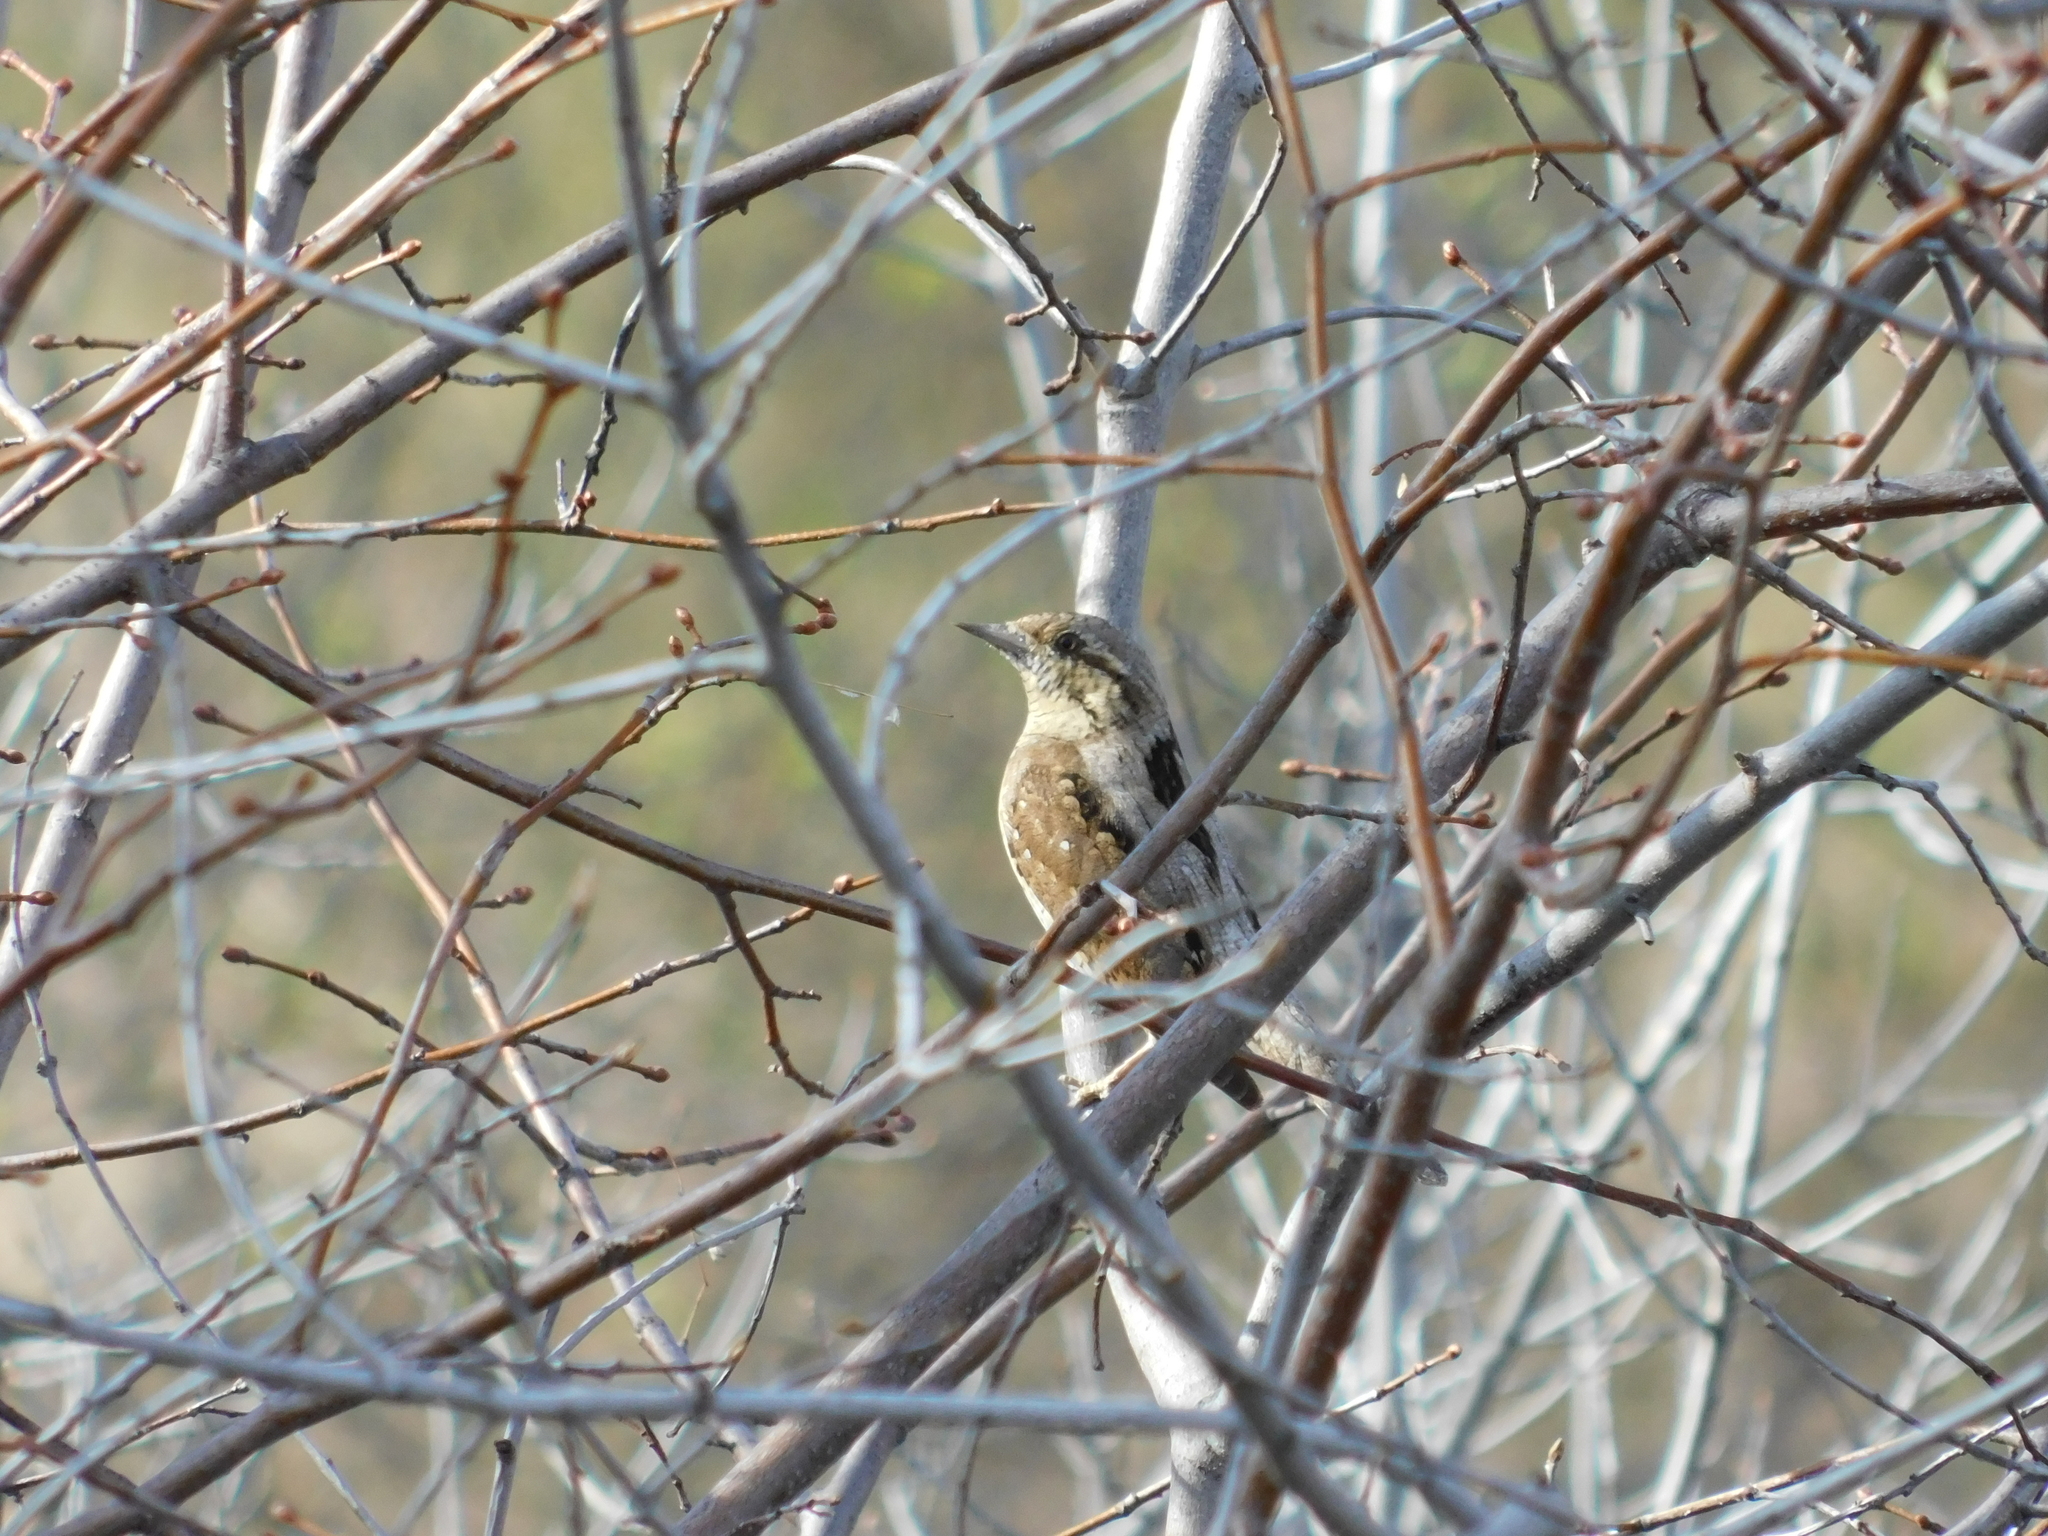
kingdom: Animalia
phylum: Chordata
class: Aves
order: Piciformes
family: Picidae
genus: Jynx
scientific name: Jynx torquilla
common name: Eurasian wryneck
